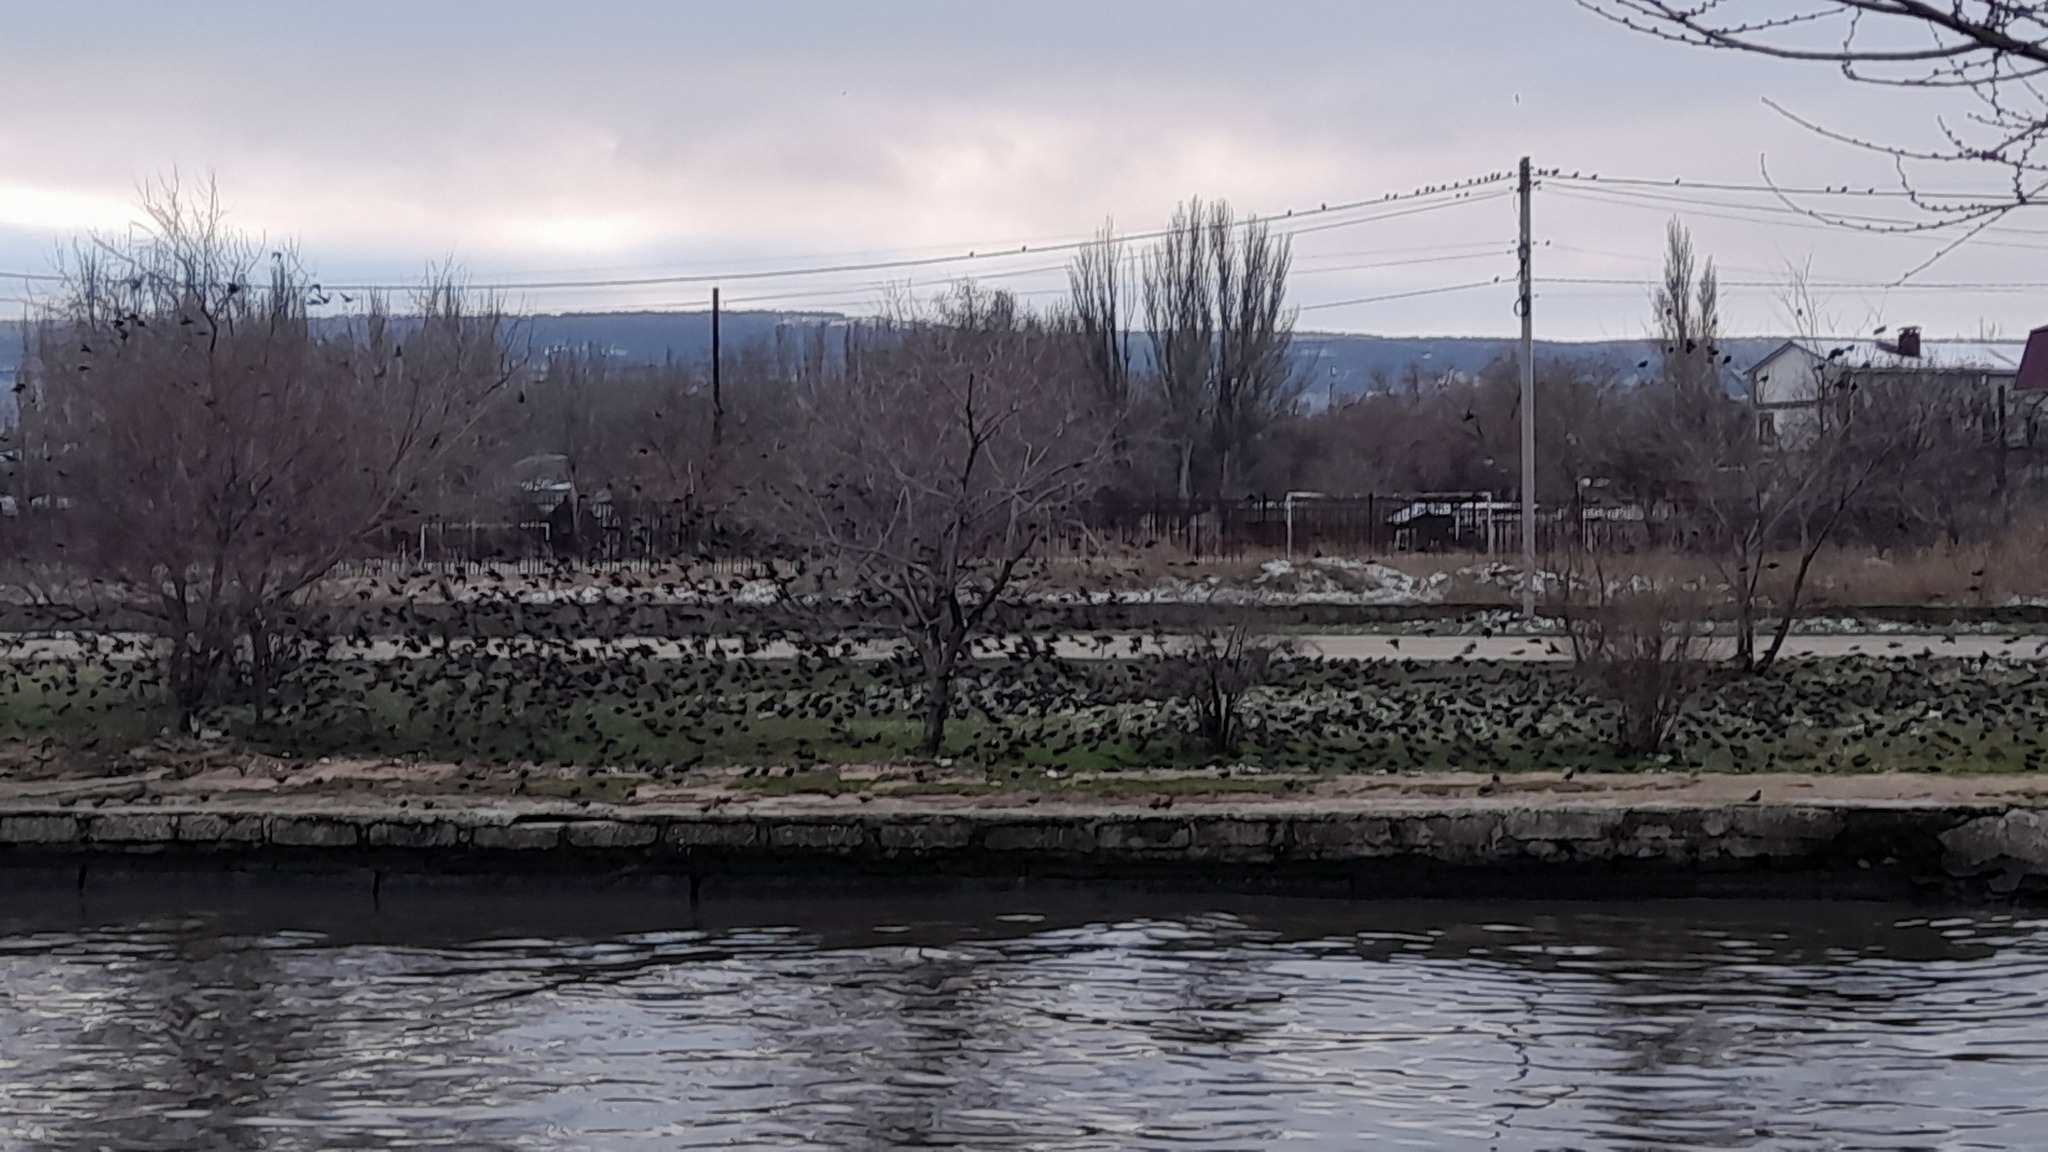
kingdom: Animalia
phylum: Chordata
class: Aves
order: Passeriformes
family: Sturnidae
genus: Sturnus
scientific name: Sturnus vulgaris
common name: Common starling
